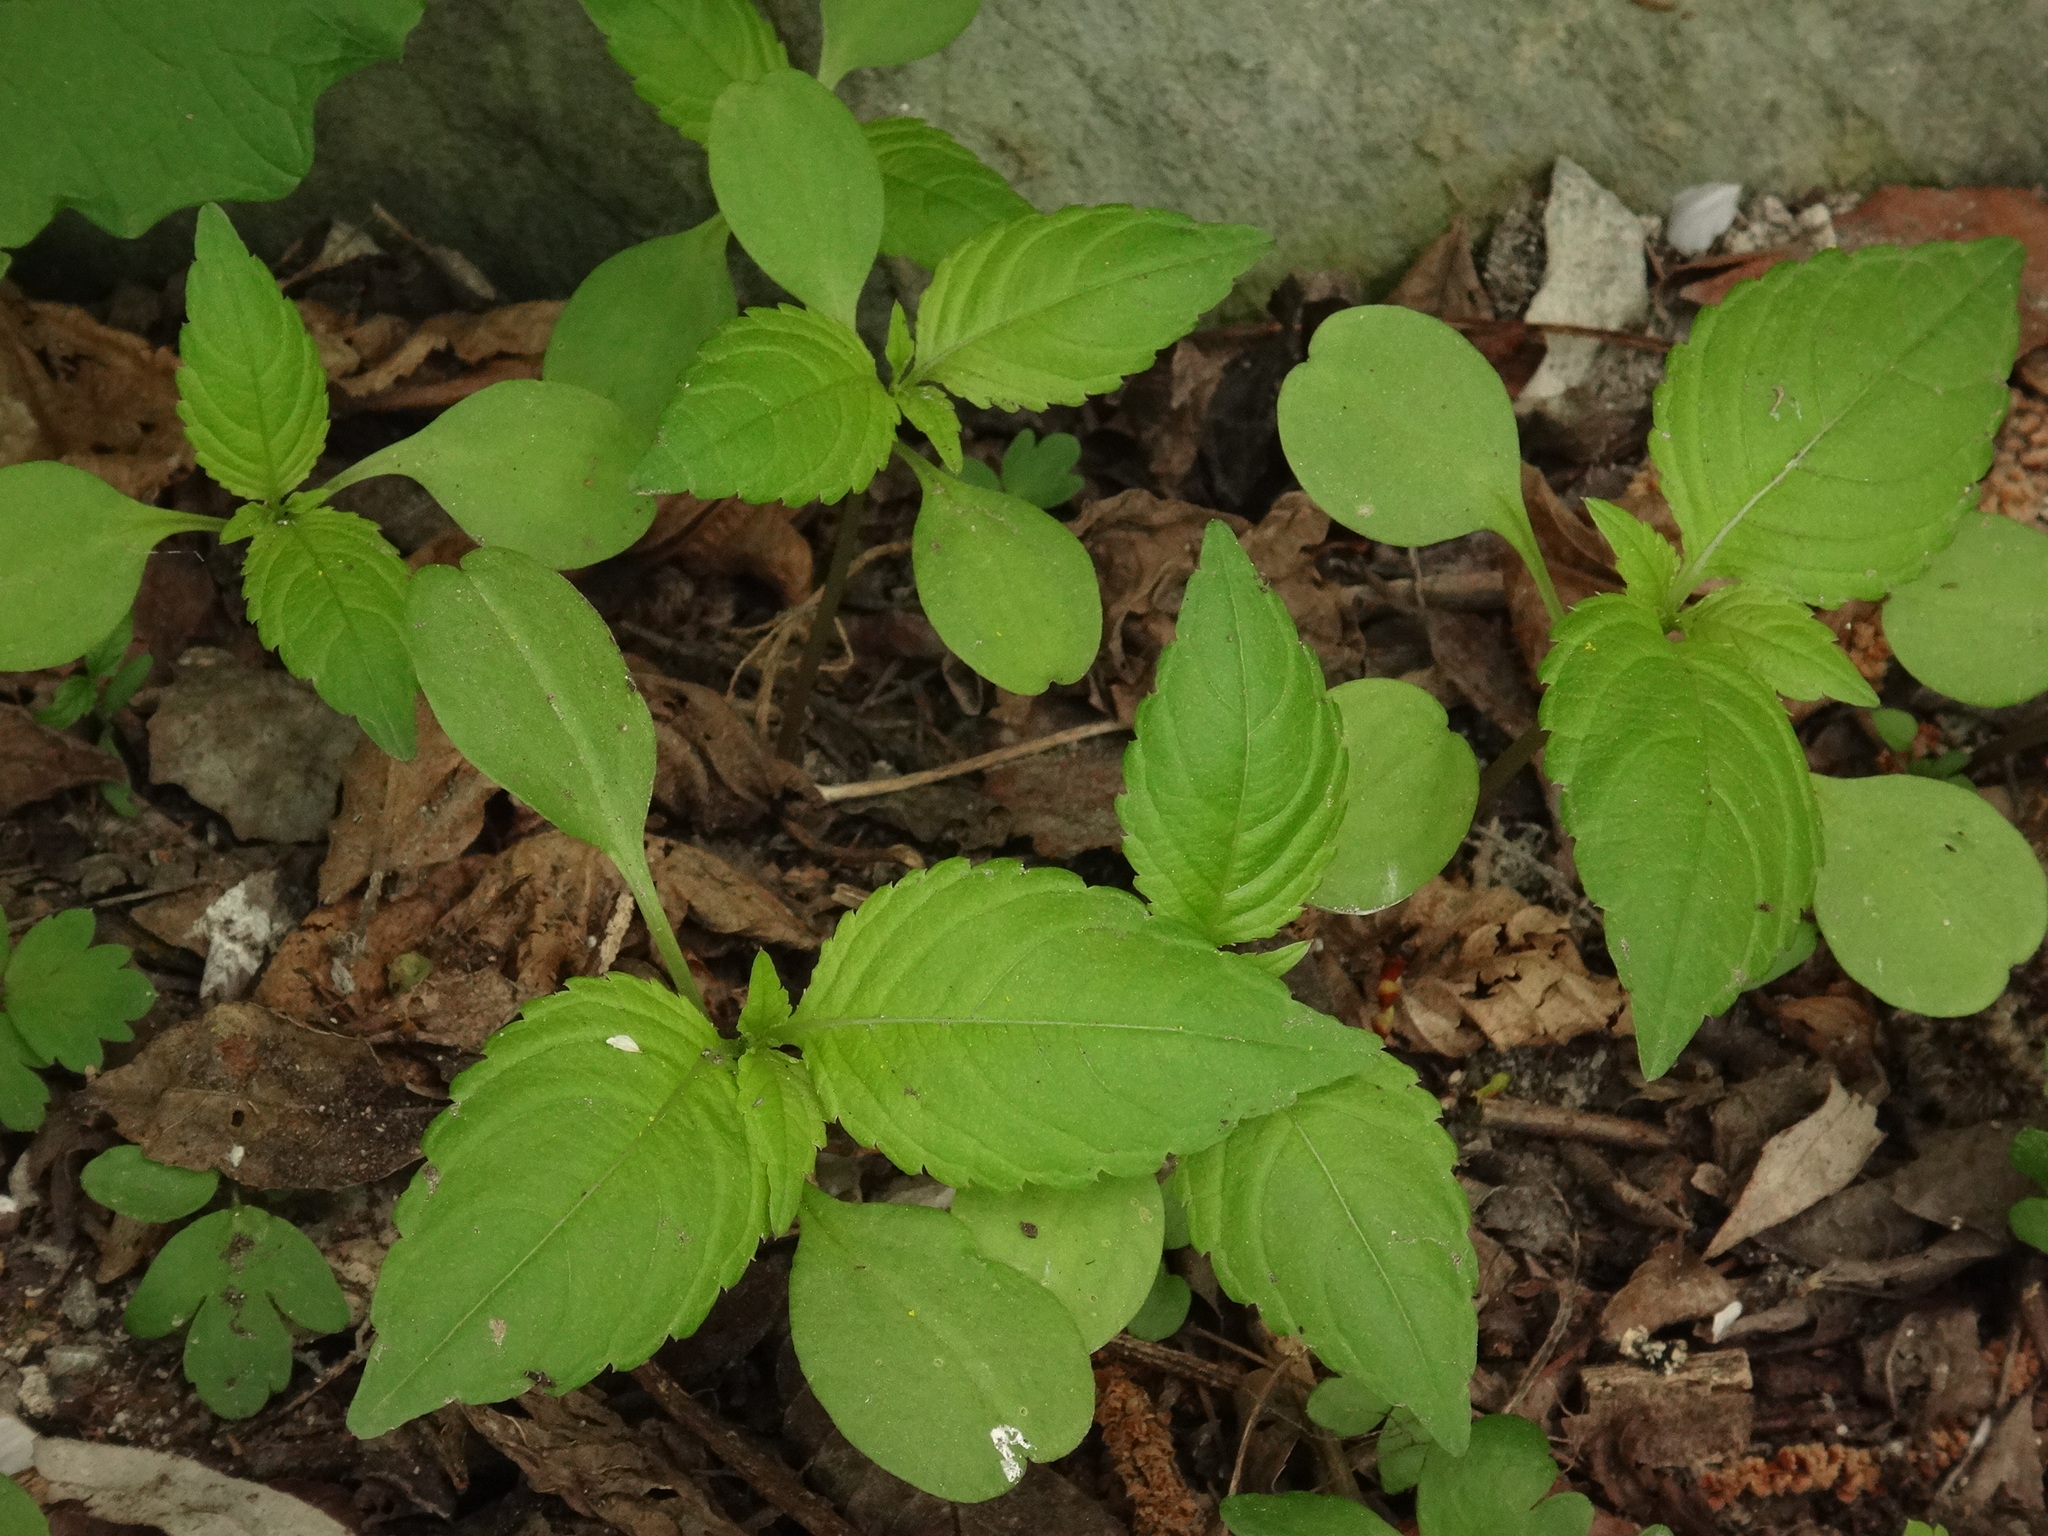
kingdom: Plantae
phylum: Tracheophyta
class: Magnoliopsida
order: Ericales
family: Balsaminaceae
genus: Impatiens
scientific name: Impatiens parviflora
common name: Small balsam
